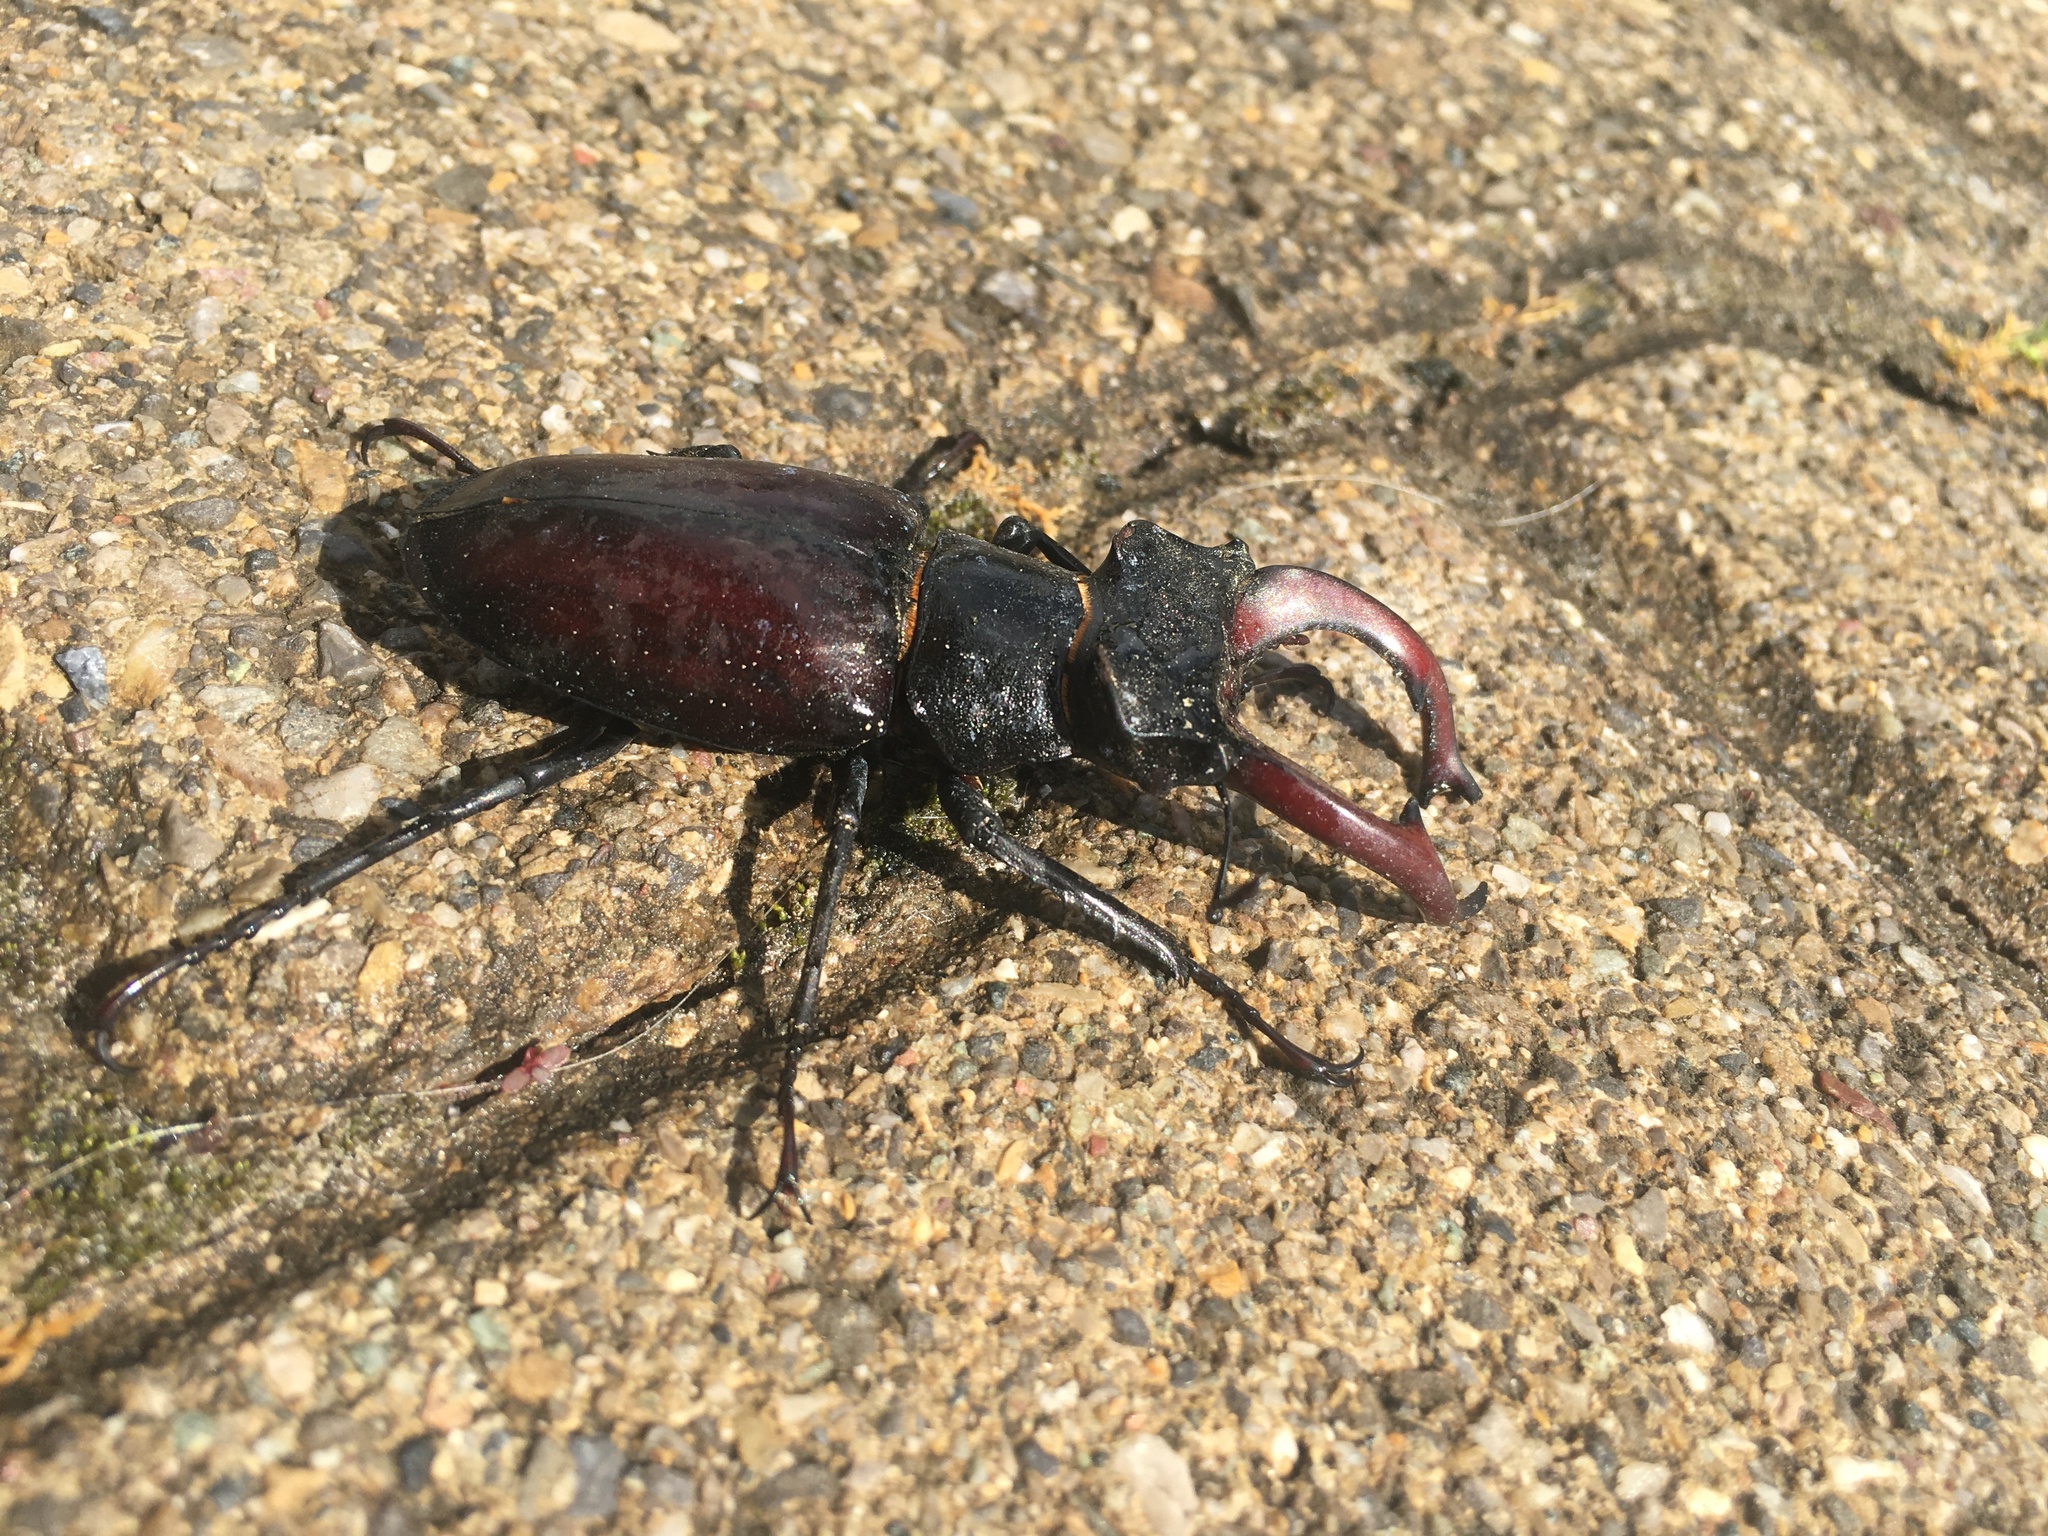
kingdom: Animalia
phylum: Arthropoda
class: Insecta
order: Coleoptera
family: Lucanidae
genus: Lucanus
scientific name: Lucanus cervus
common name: Stag beetle
